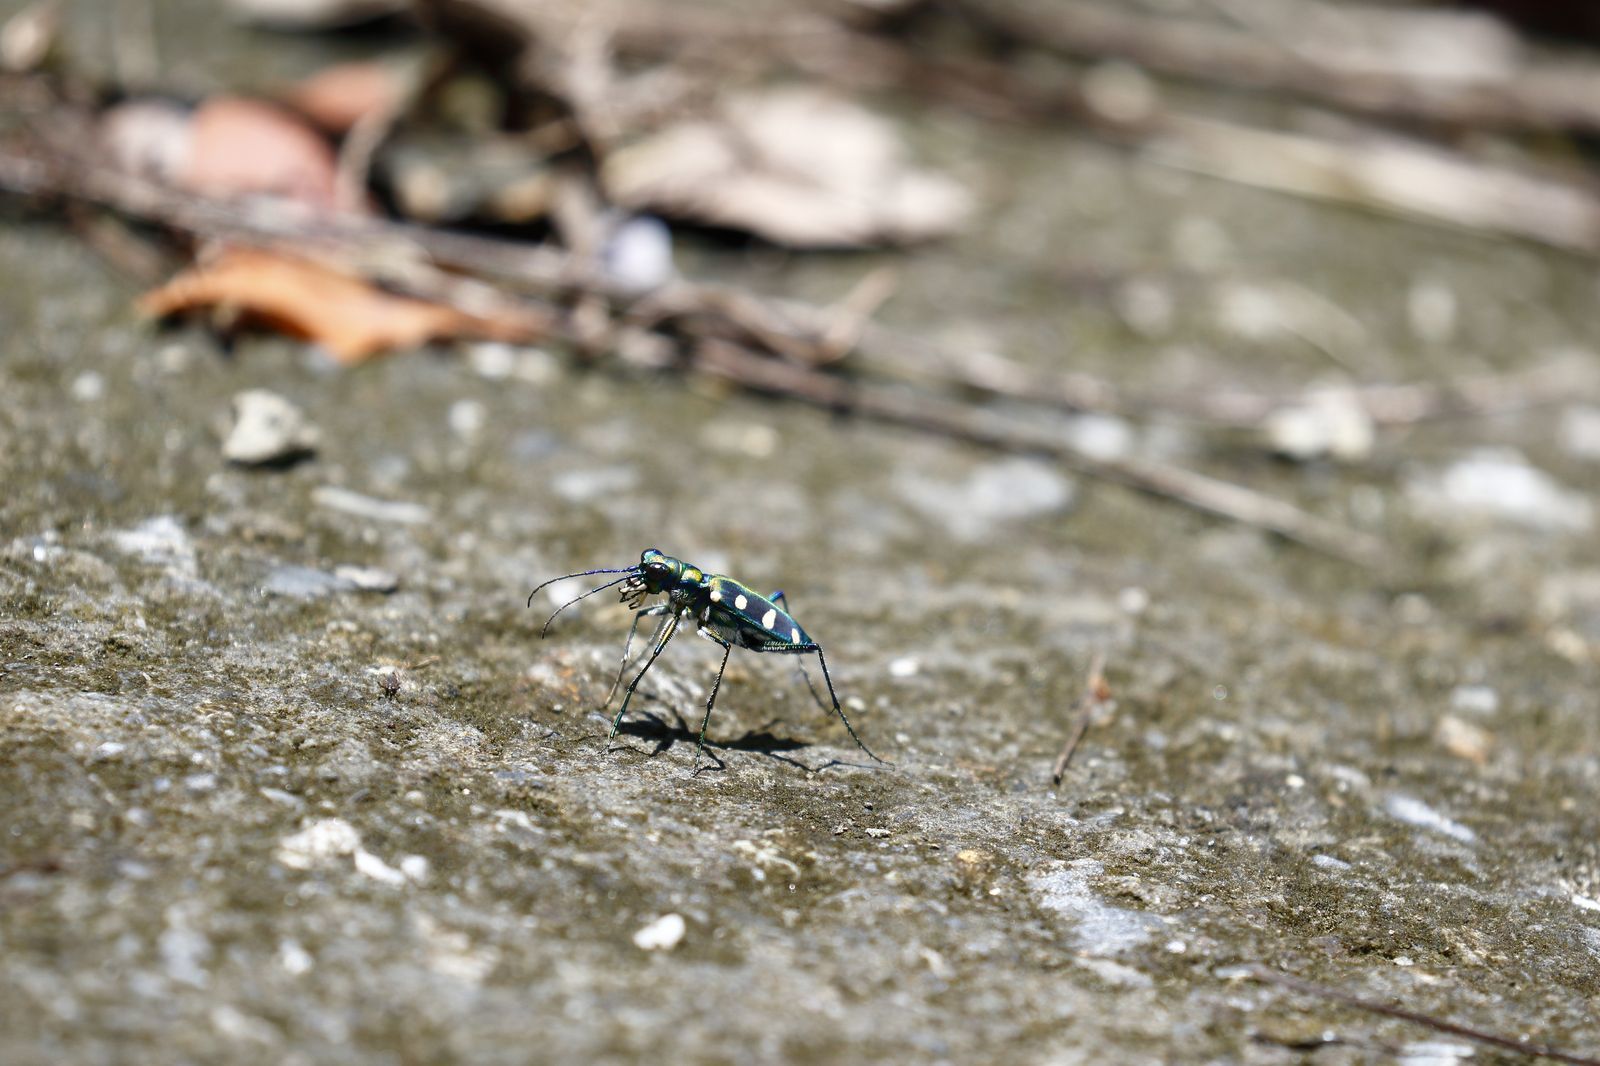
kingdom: Animalia
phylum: Arthropoda
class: Insecta
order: Coleoptera
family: Carabidae
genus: Cicindela
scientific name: Cicindela batesi
